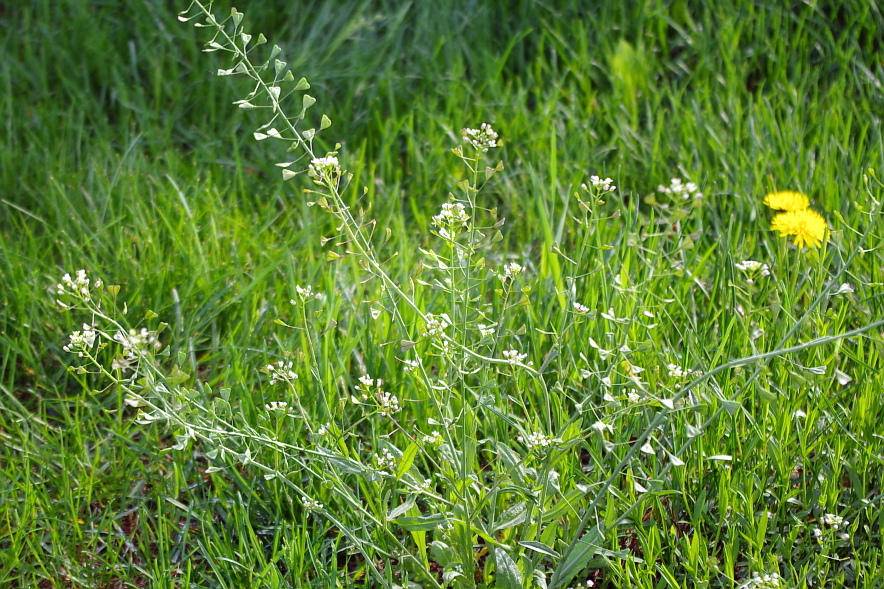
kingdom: Plantae
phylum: Tracheophyta
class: Magnoliopsida
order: Brassicales
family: Brassicaceae
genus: Capsella
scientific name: Capsella bursa-pastoris
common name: Shepherd's purse
